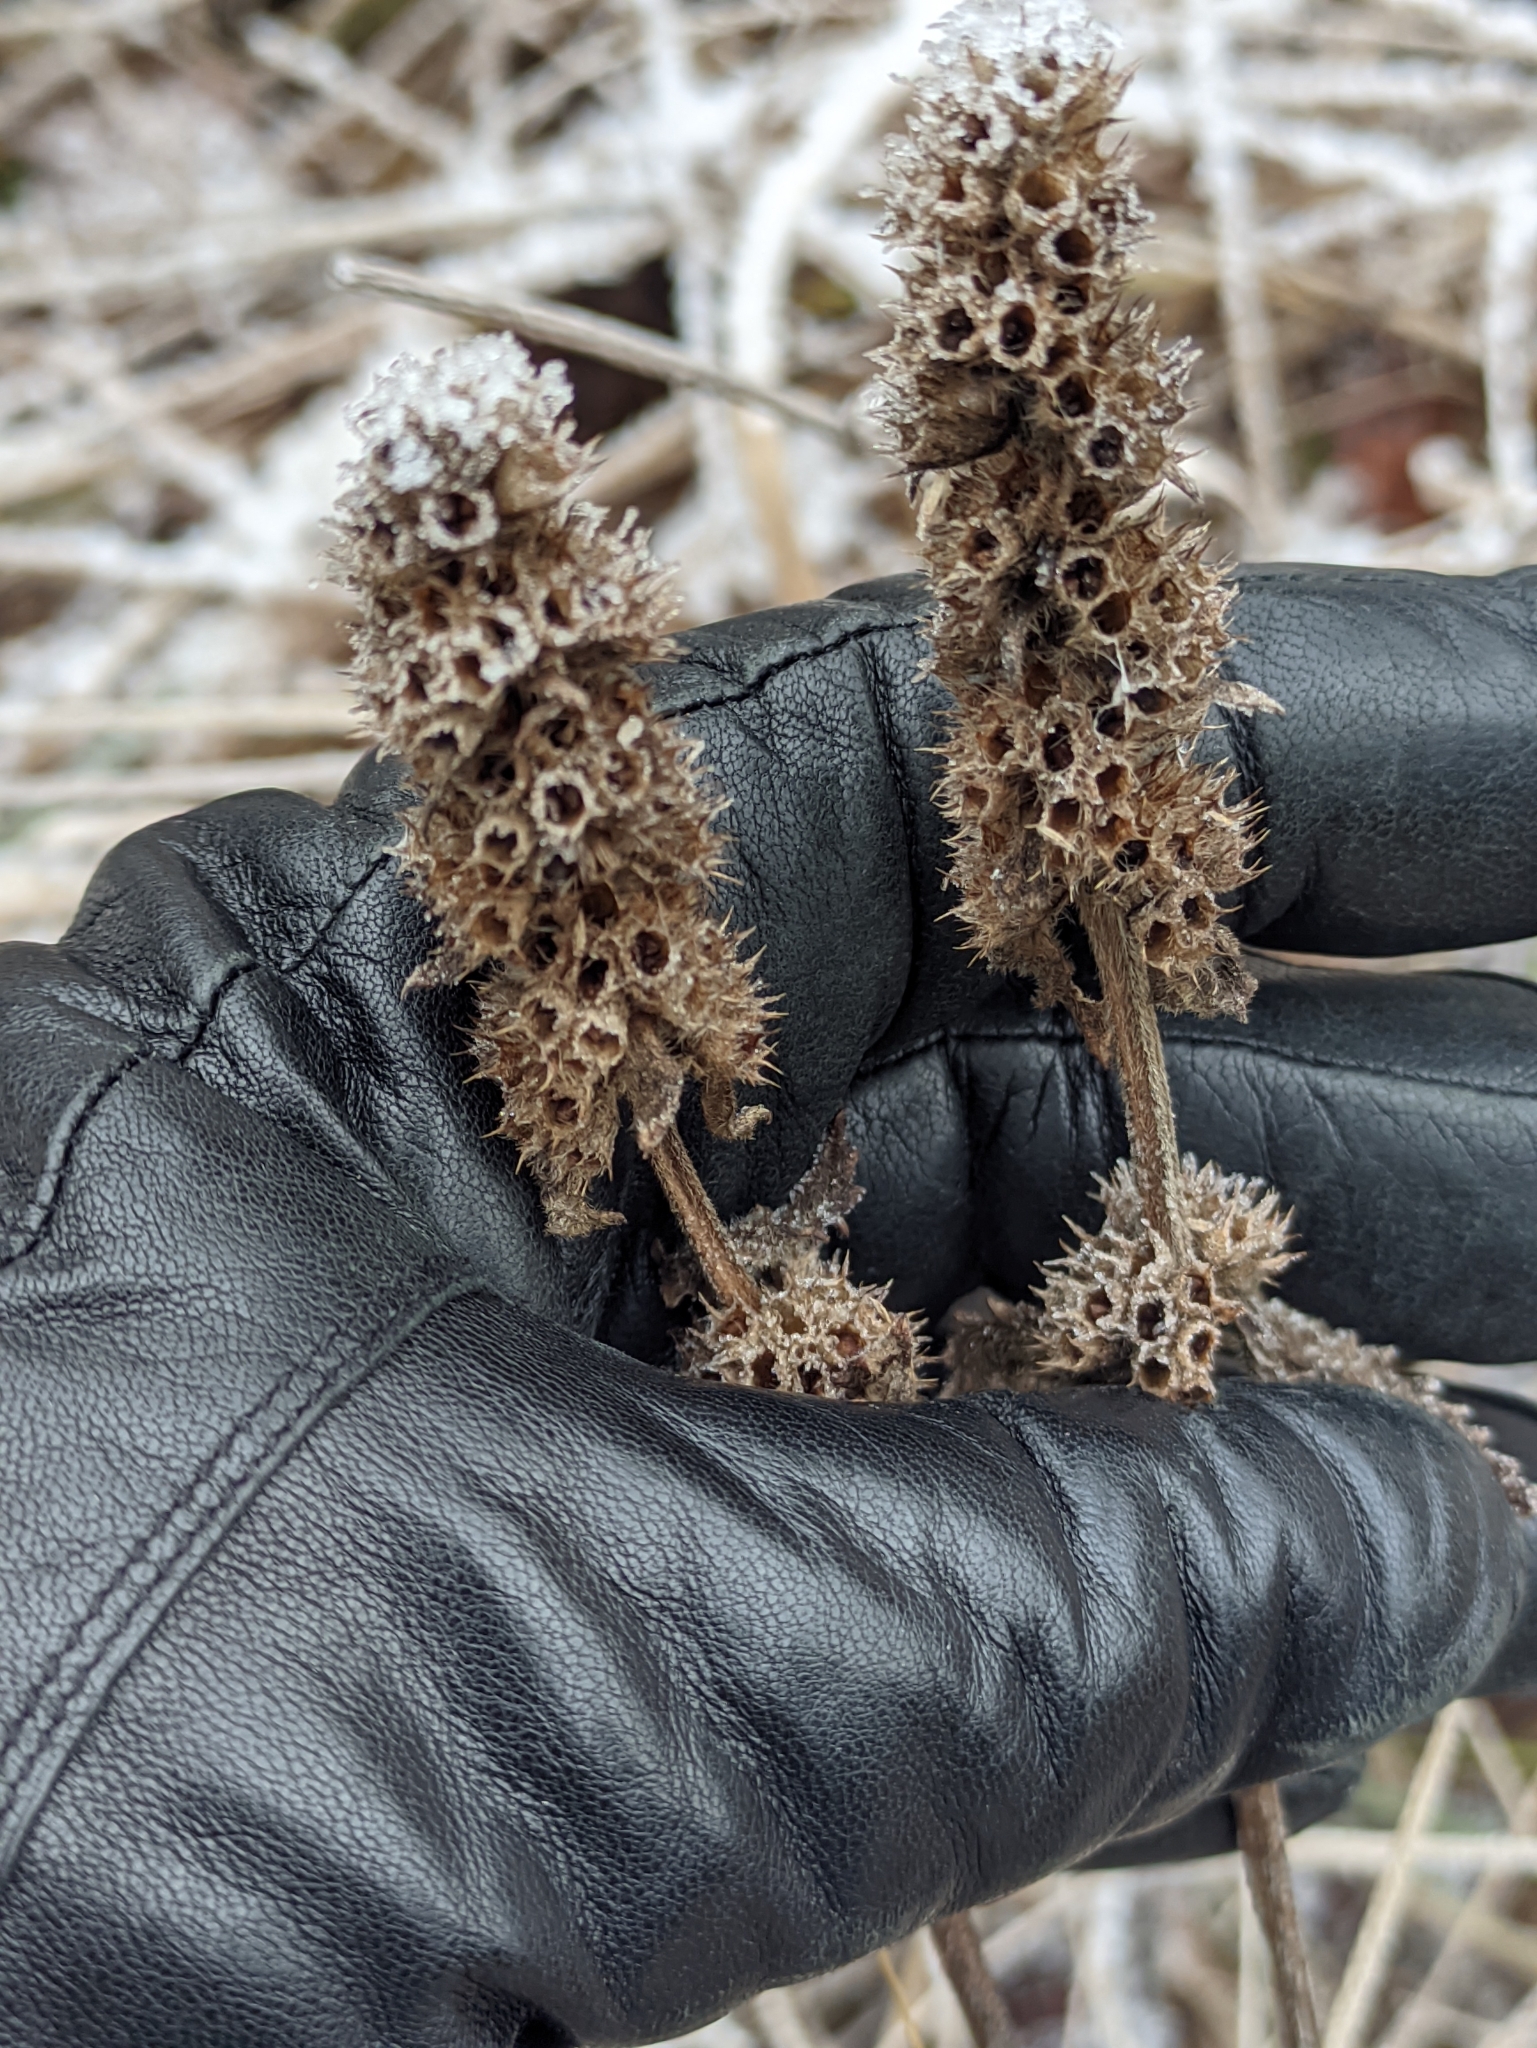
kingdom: Plantae
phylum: Tracheophyta
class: Magnoliopsida
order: Lamiales
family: Lamiaceae
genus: Betonica
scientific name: Betonica officinalis
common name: Bishop's-wort
